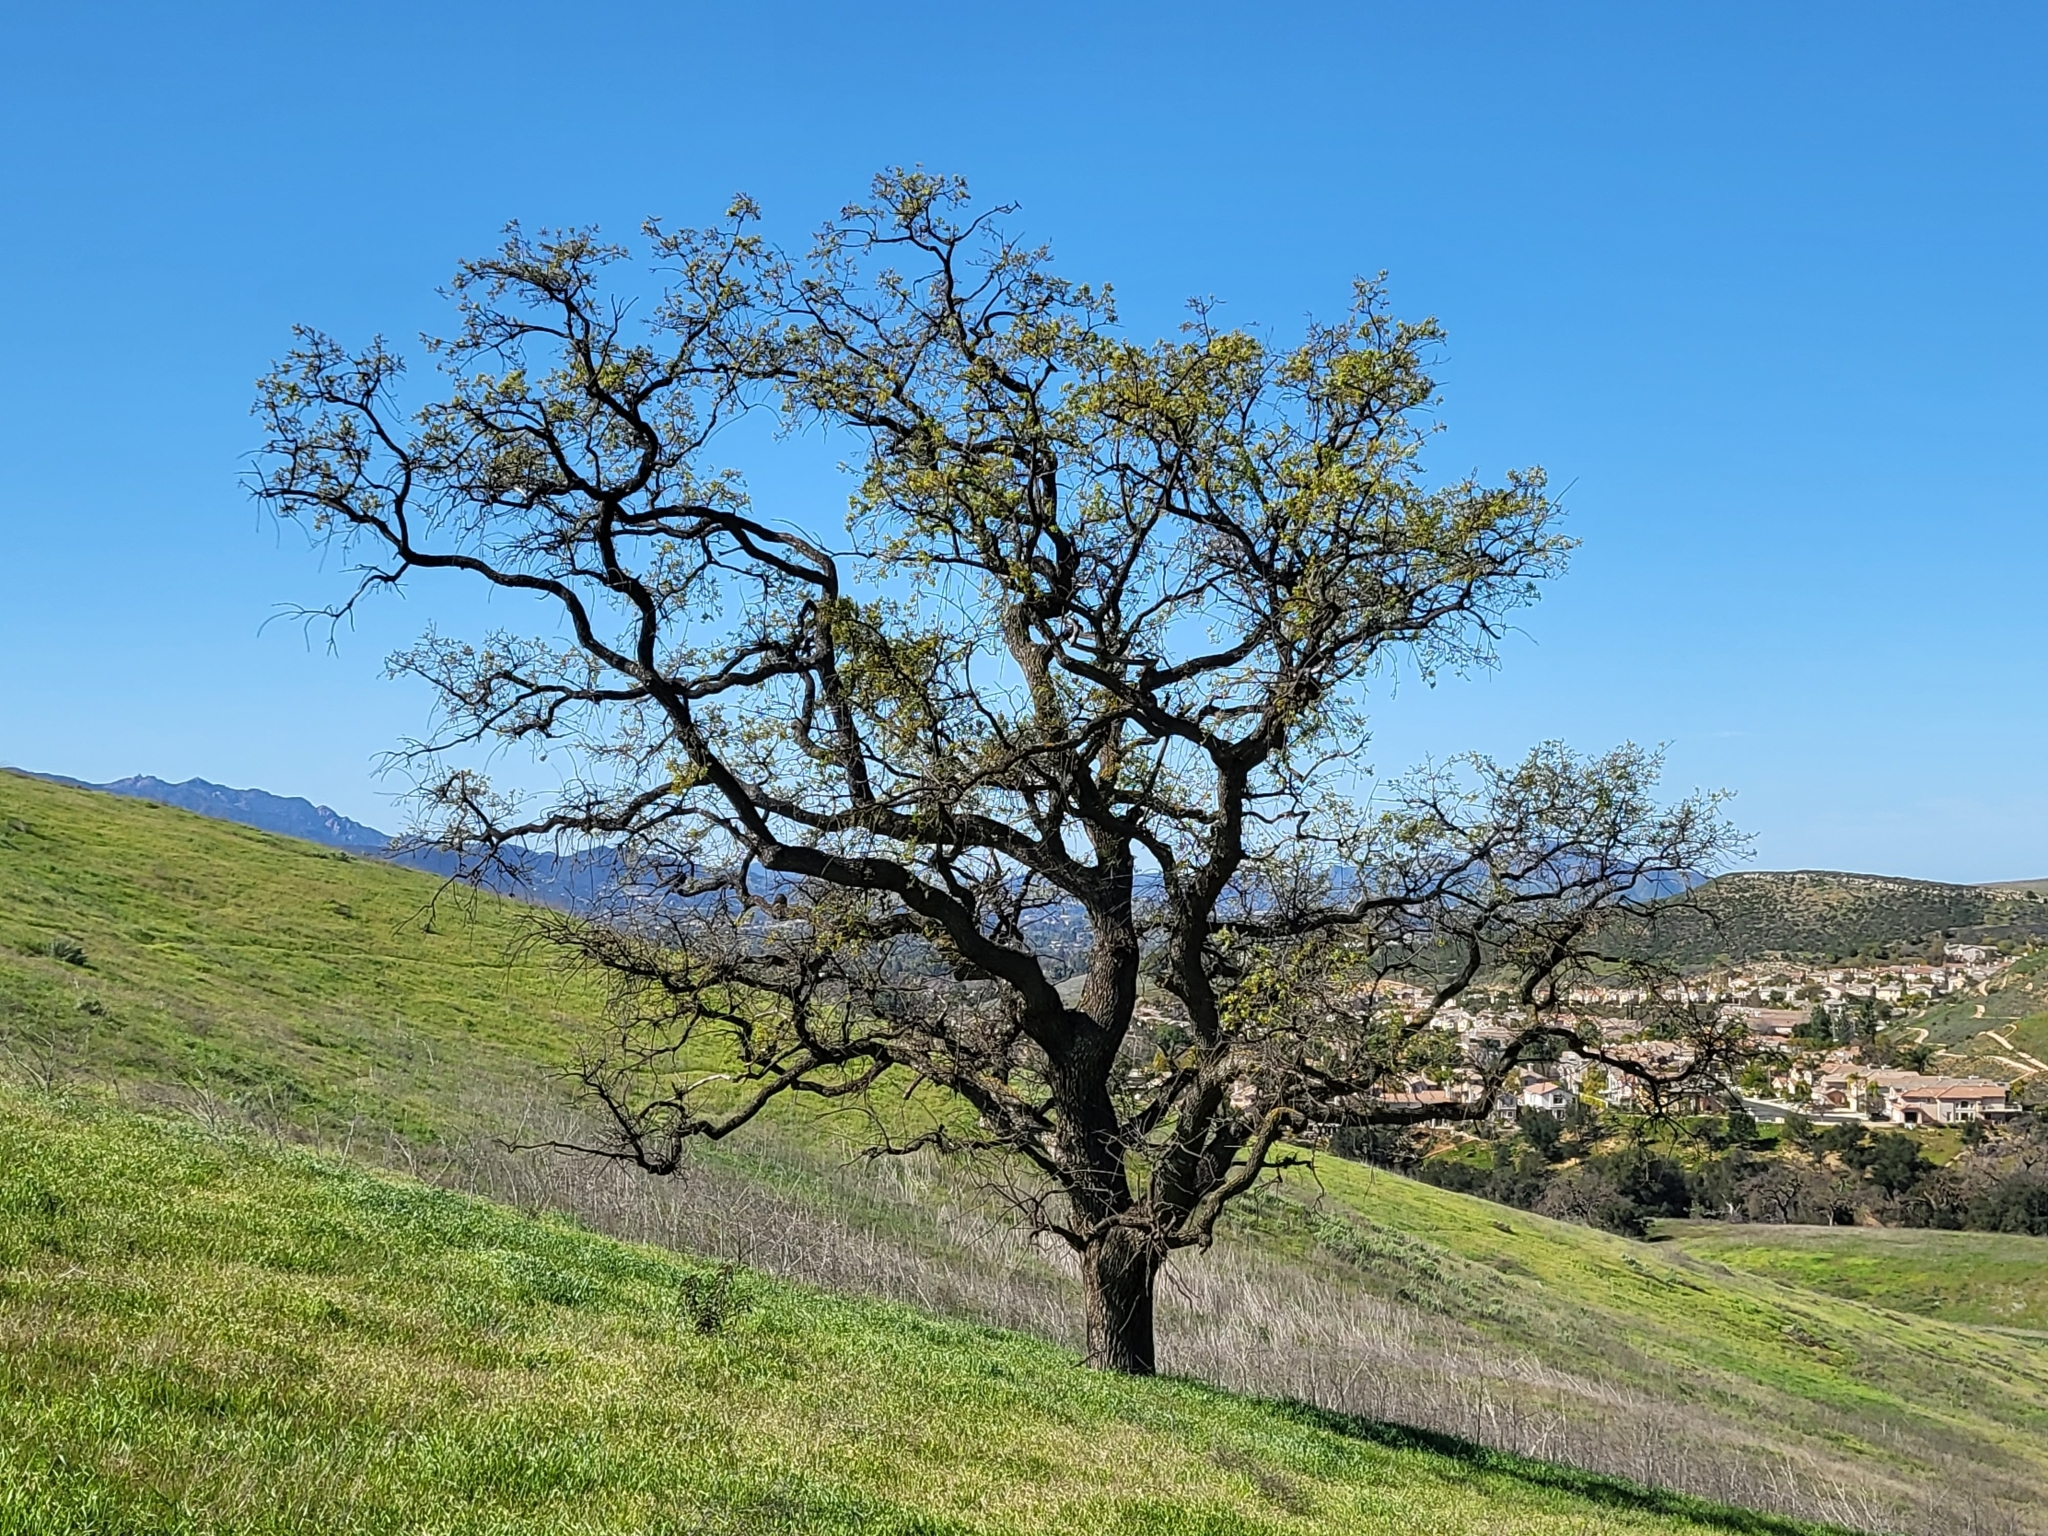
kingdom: Plantae
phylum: Tracheophyta
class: Magnoliopsida
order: Fagales
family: Fagaceae
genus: Quercus
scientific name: Quercus lobata
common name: Valley oak
